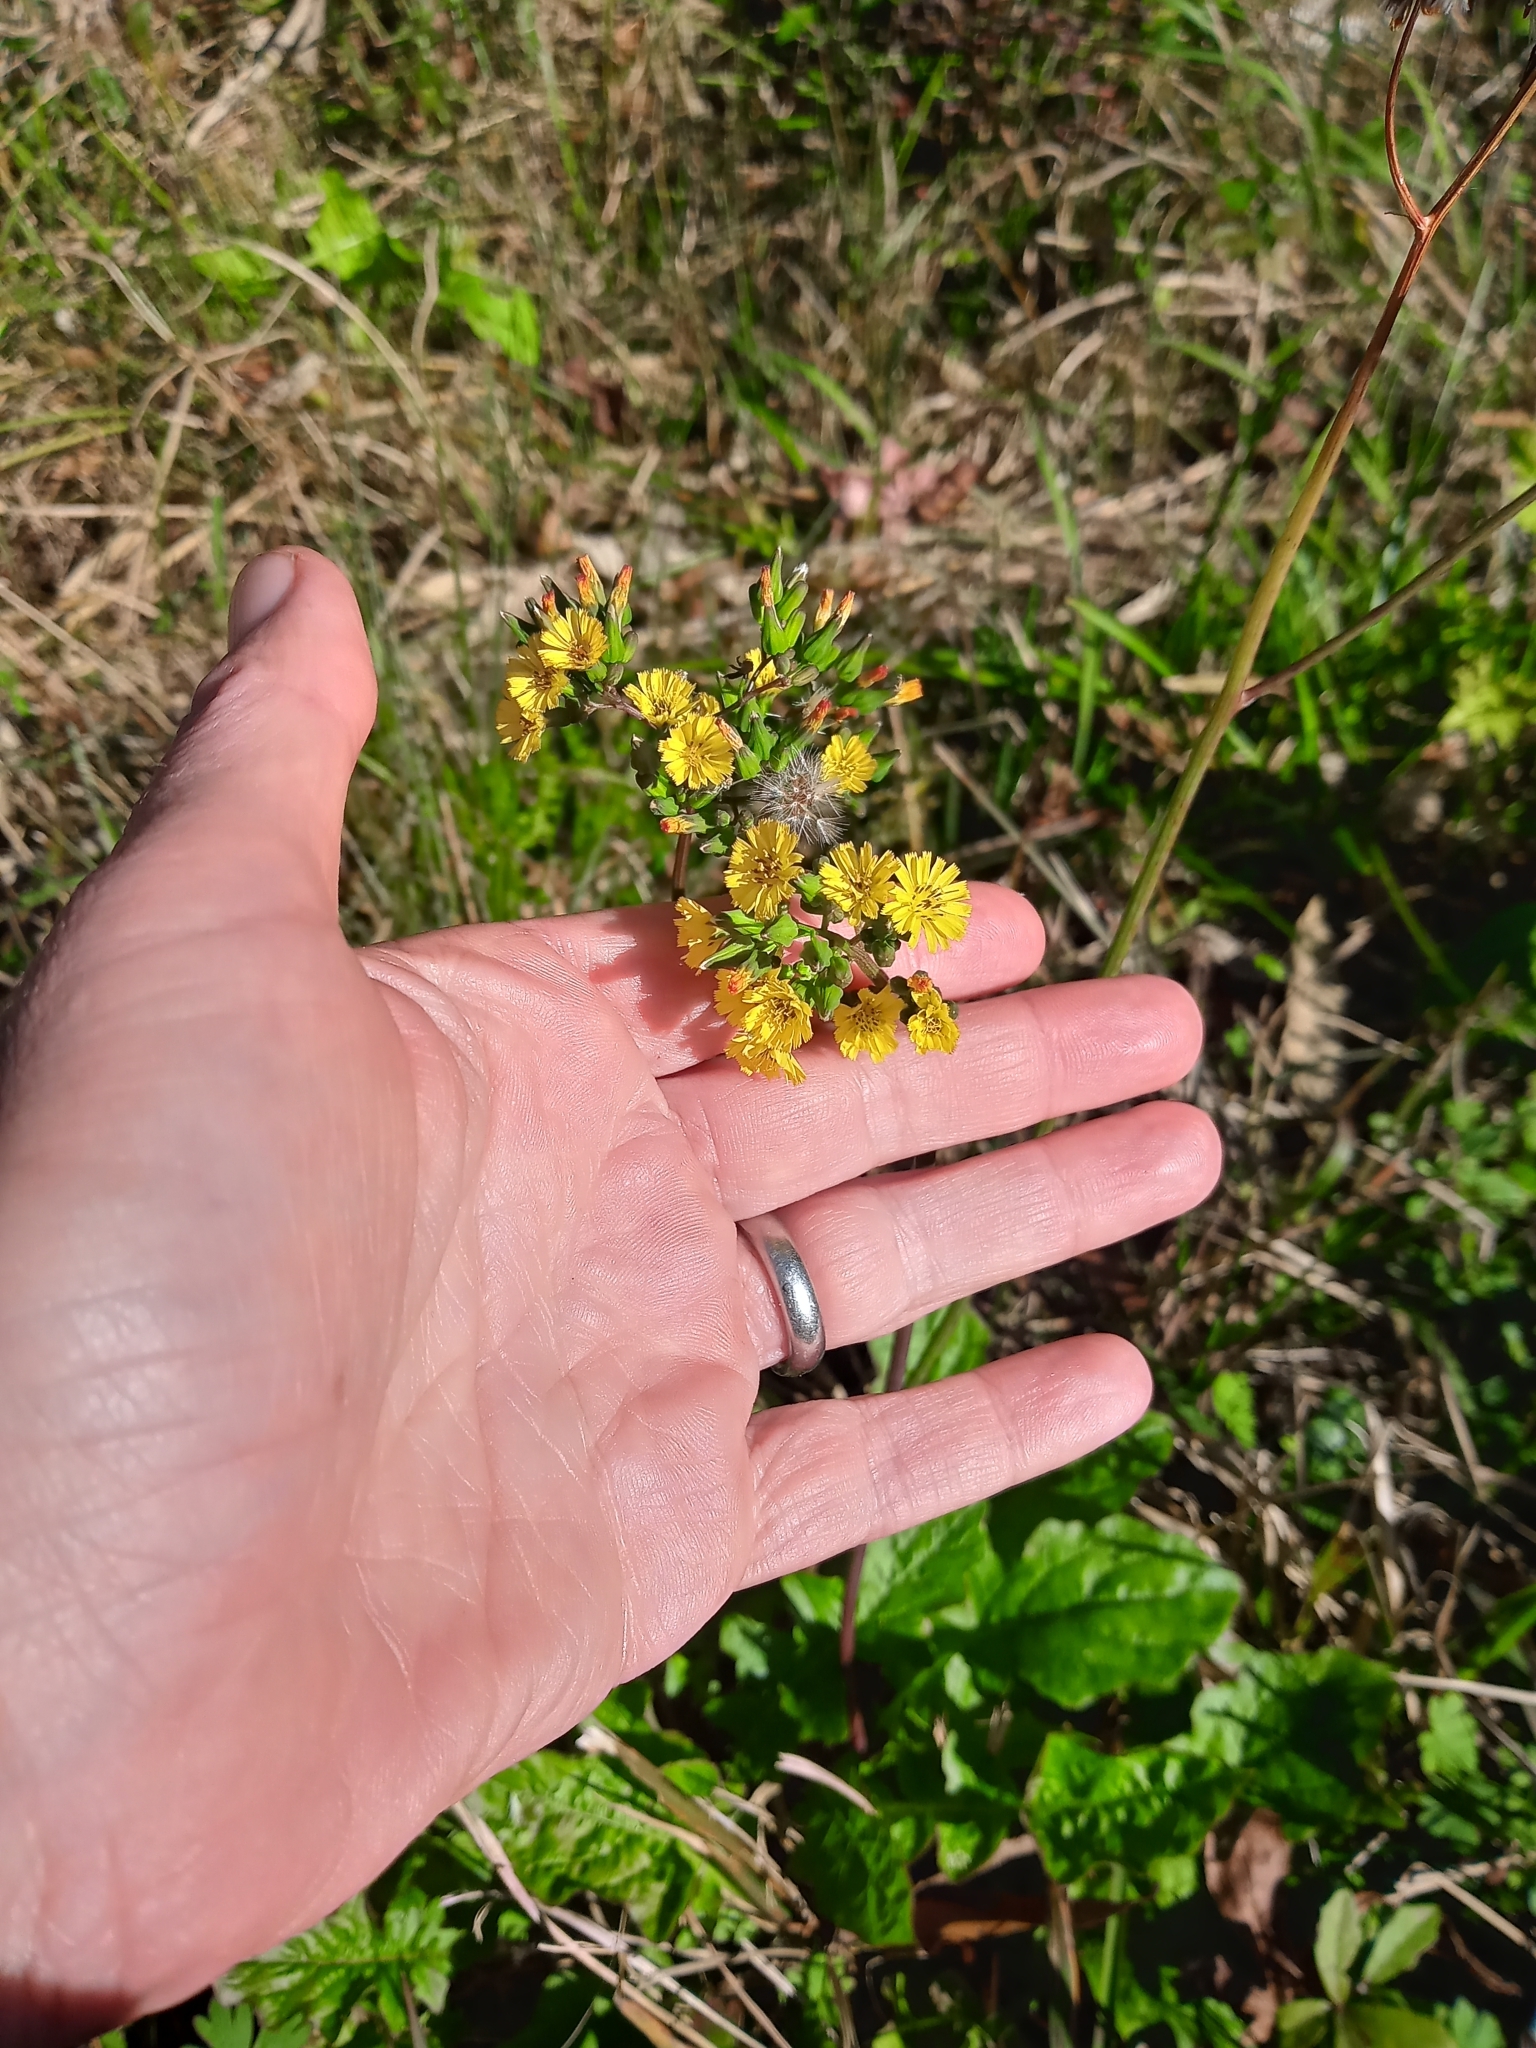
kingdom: Plantae
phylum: Tracheophyta
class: Magnoliopsida
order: Asterales
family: Asteraceae
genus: Youngia
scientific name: Youngia japonica
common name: Oriental false hawksbeard
